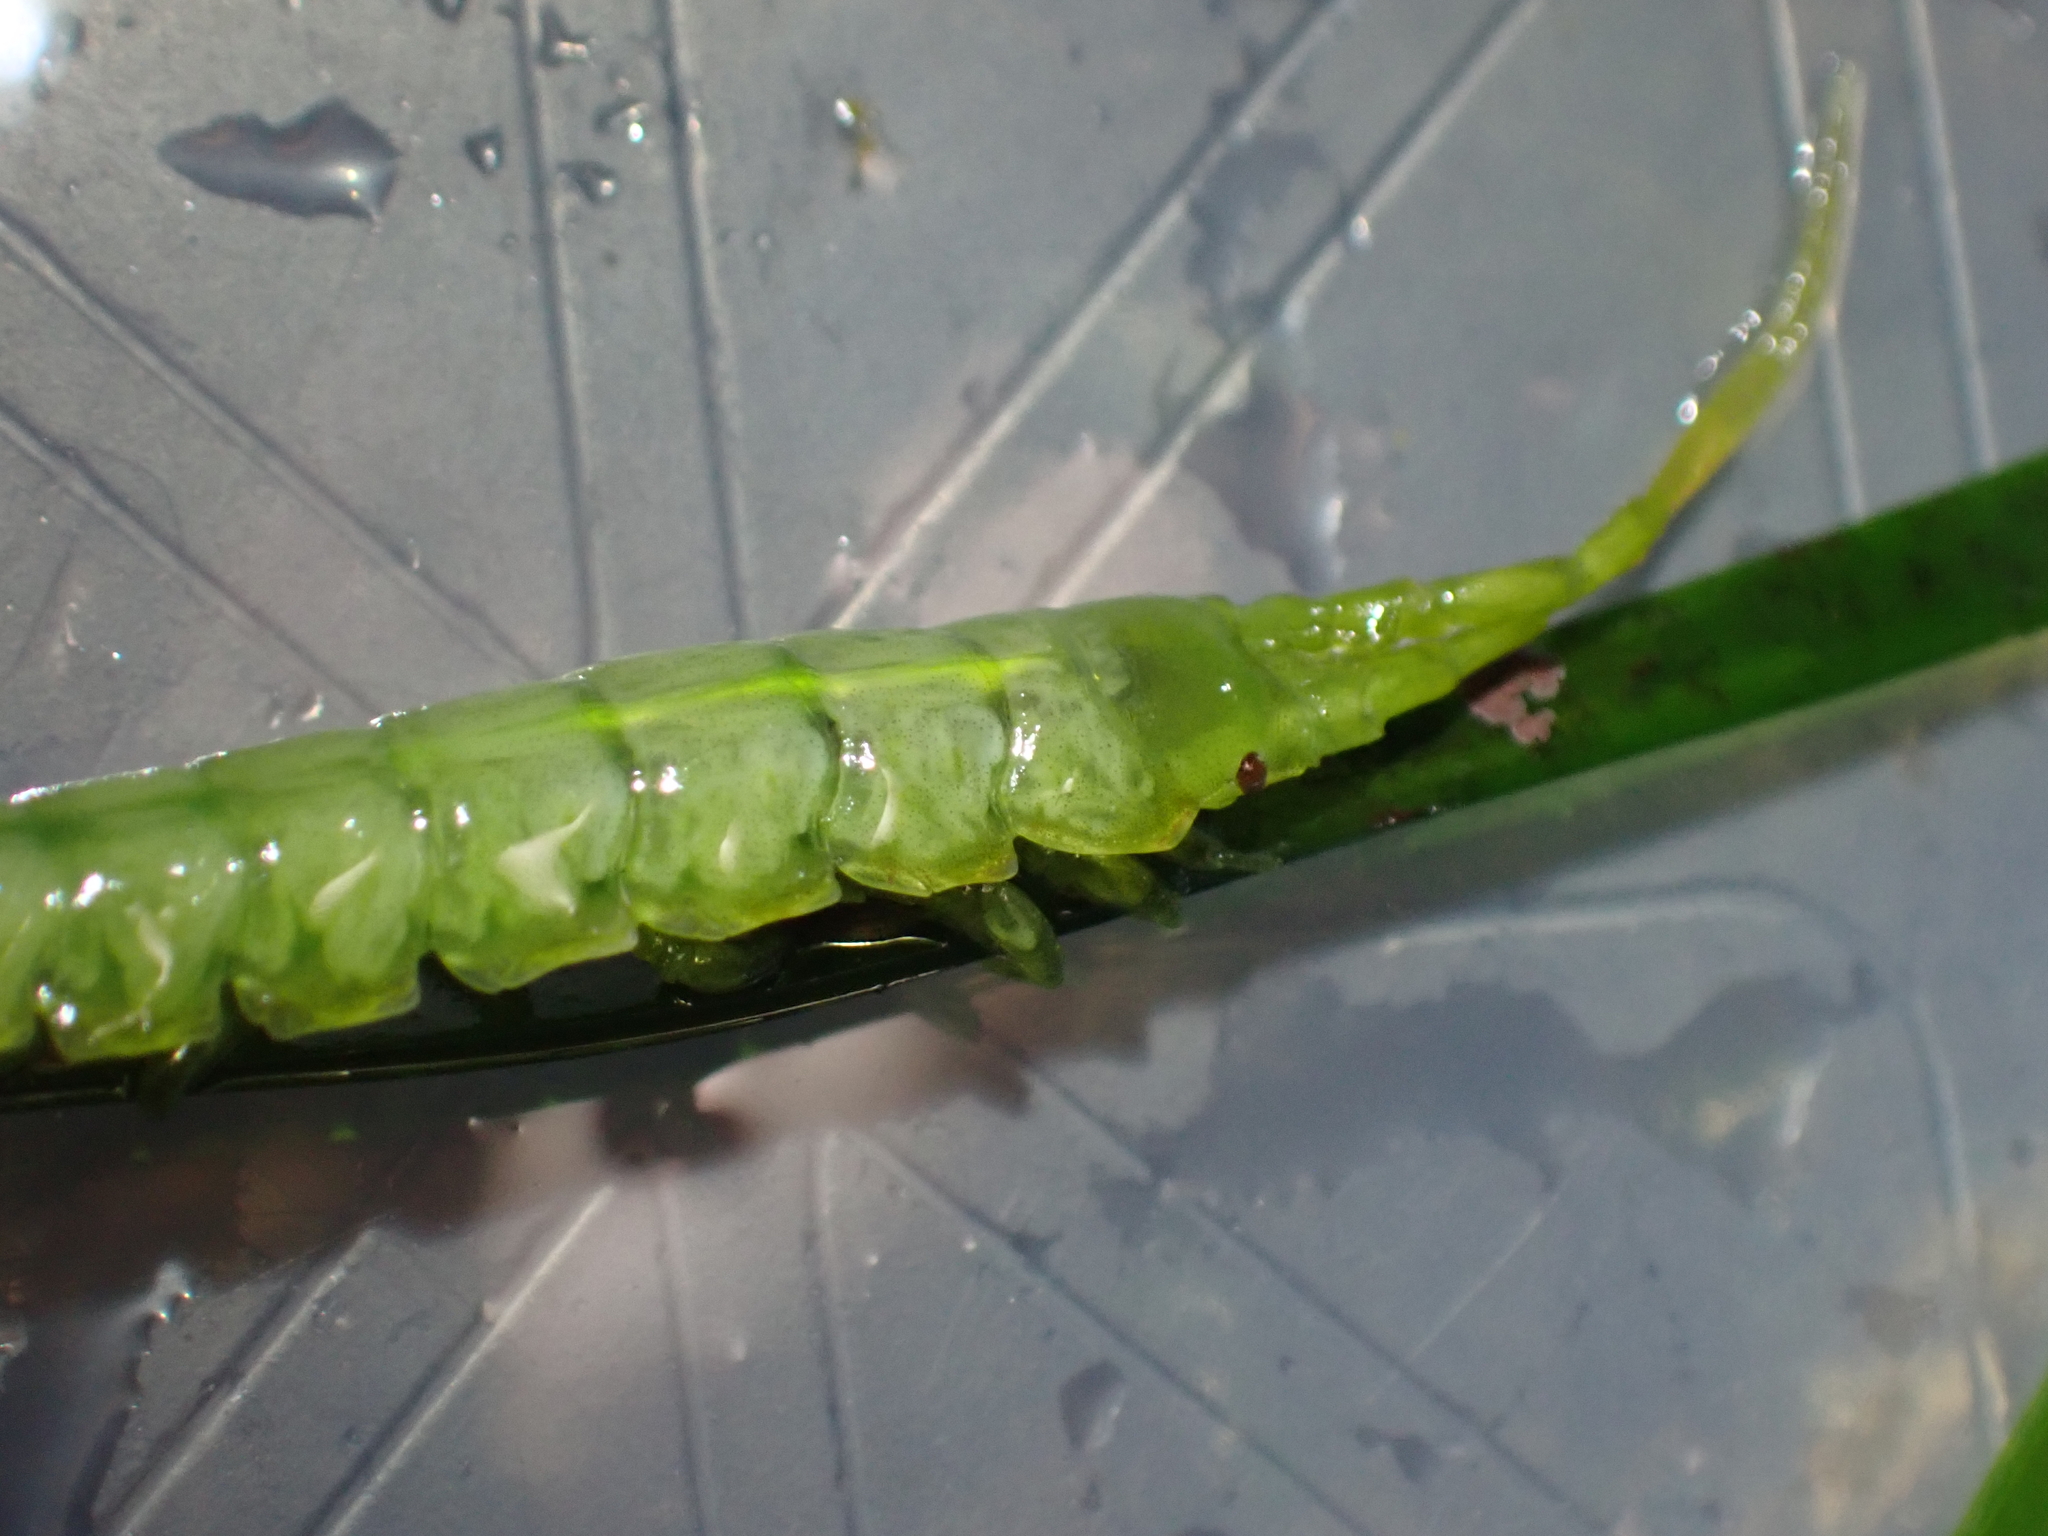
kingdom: Animalia
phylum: Arthropoda
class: Malacostraca
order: Isopoda
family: Idoteidae
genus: Pentidotea
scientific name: Pentidotea montereyensis
